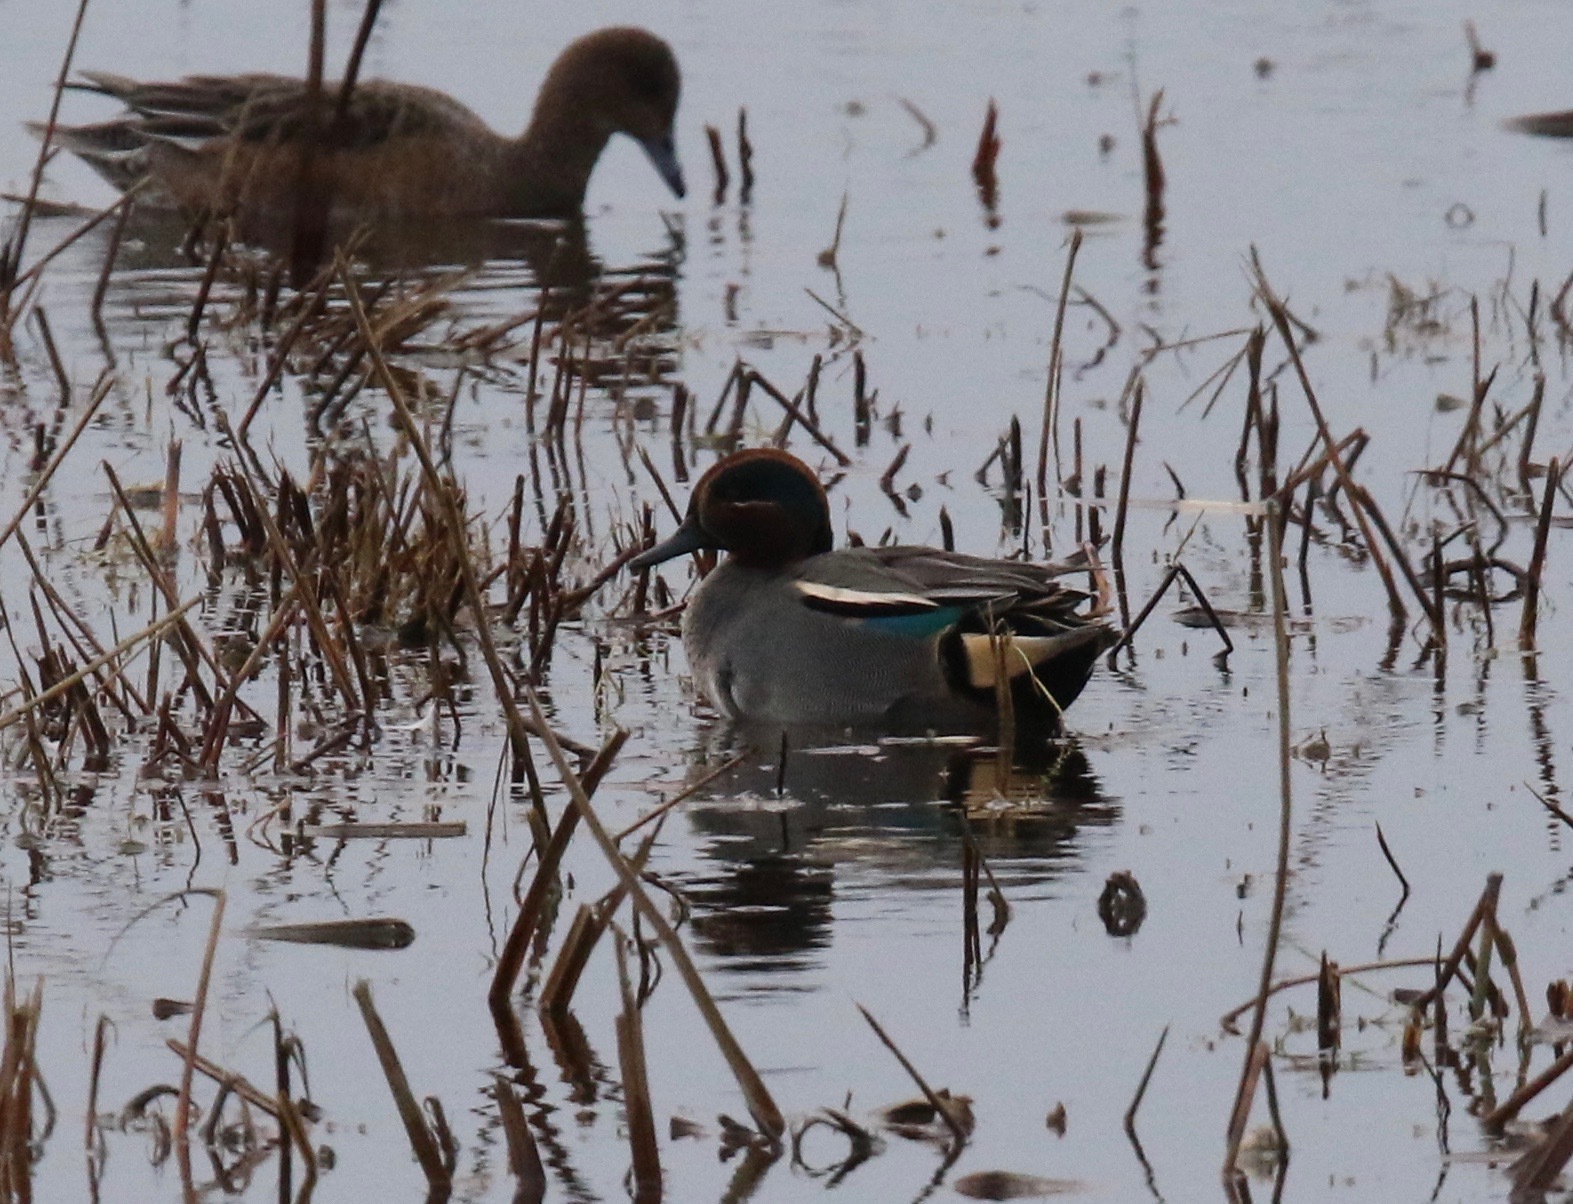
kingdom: Animalia
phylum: Chordata
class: Aves
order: Anseriformes
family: Anatidae
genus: Anas
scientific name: Anas crecca
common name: Eurasian teal
